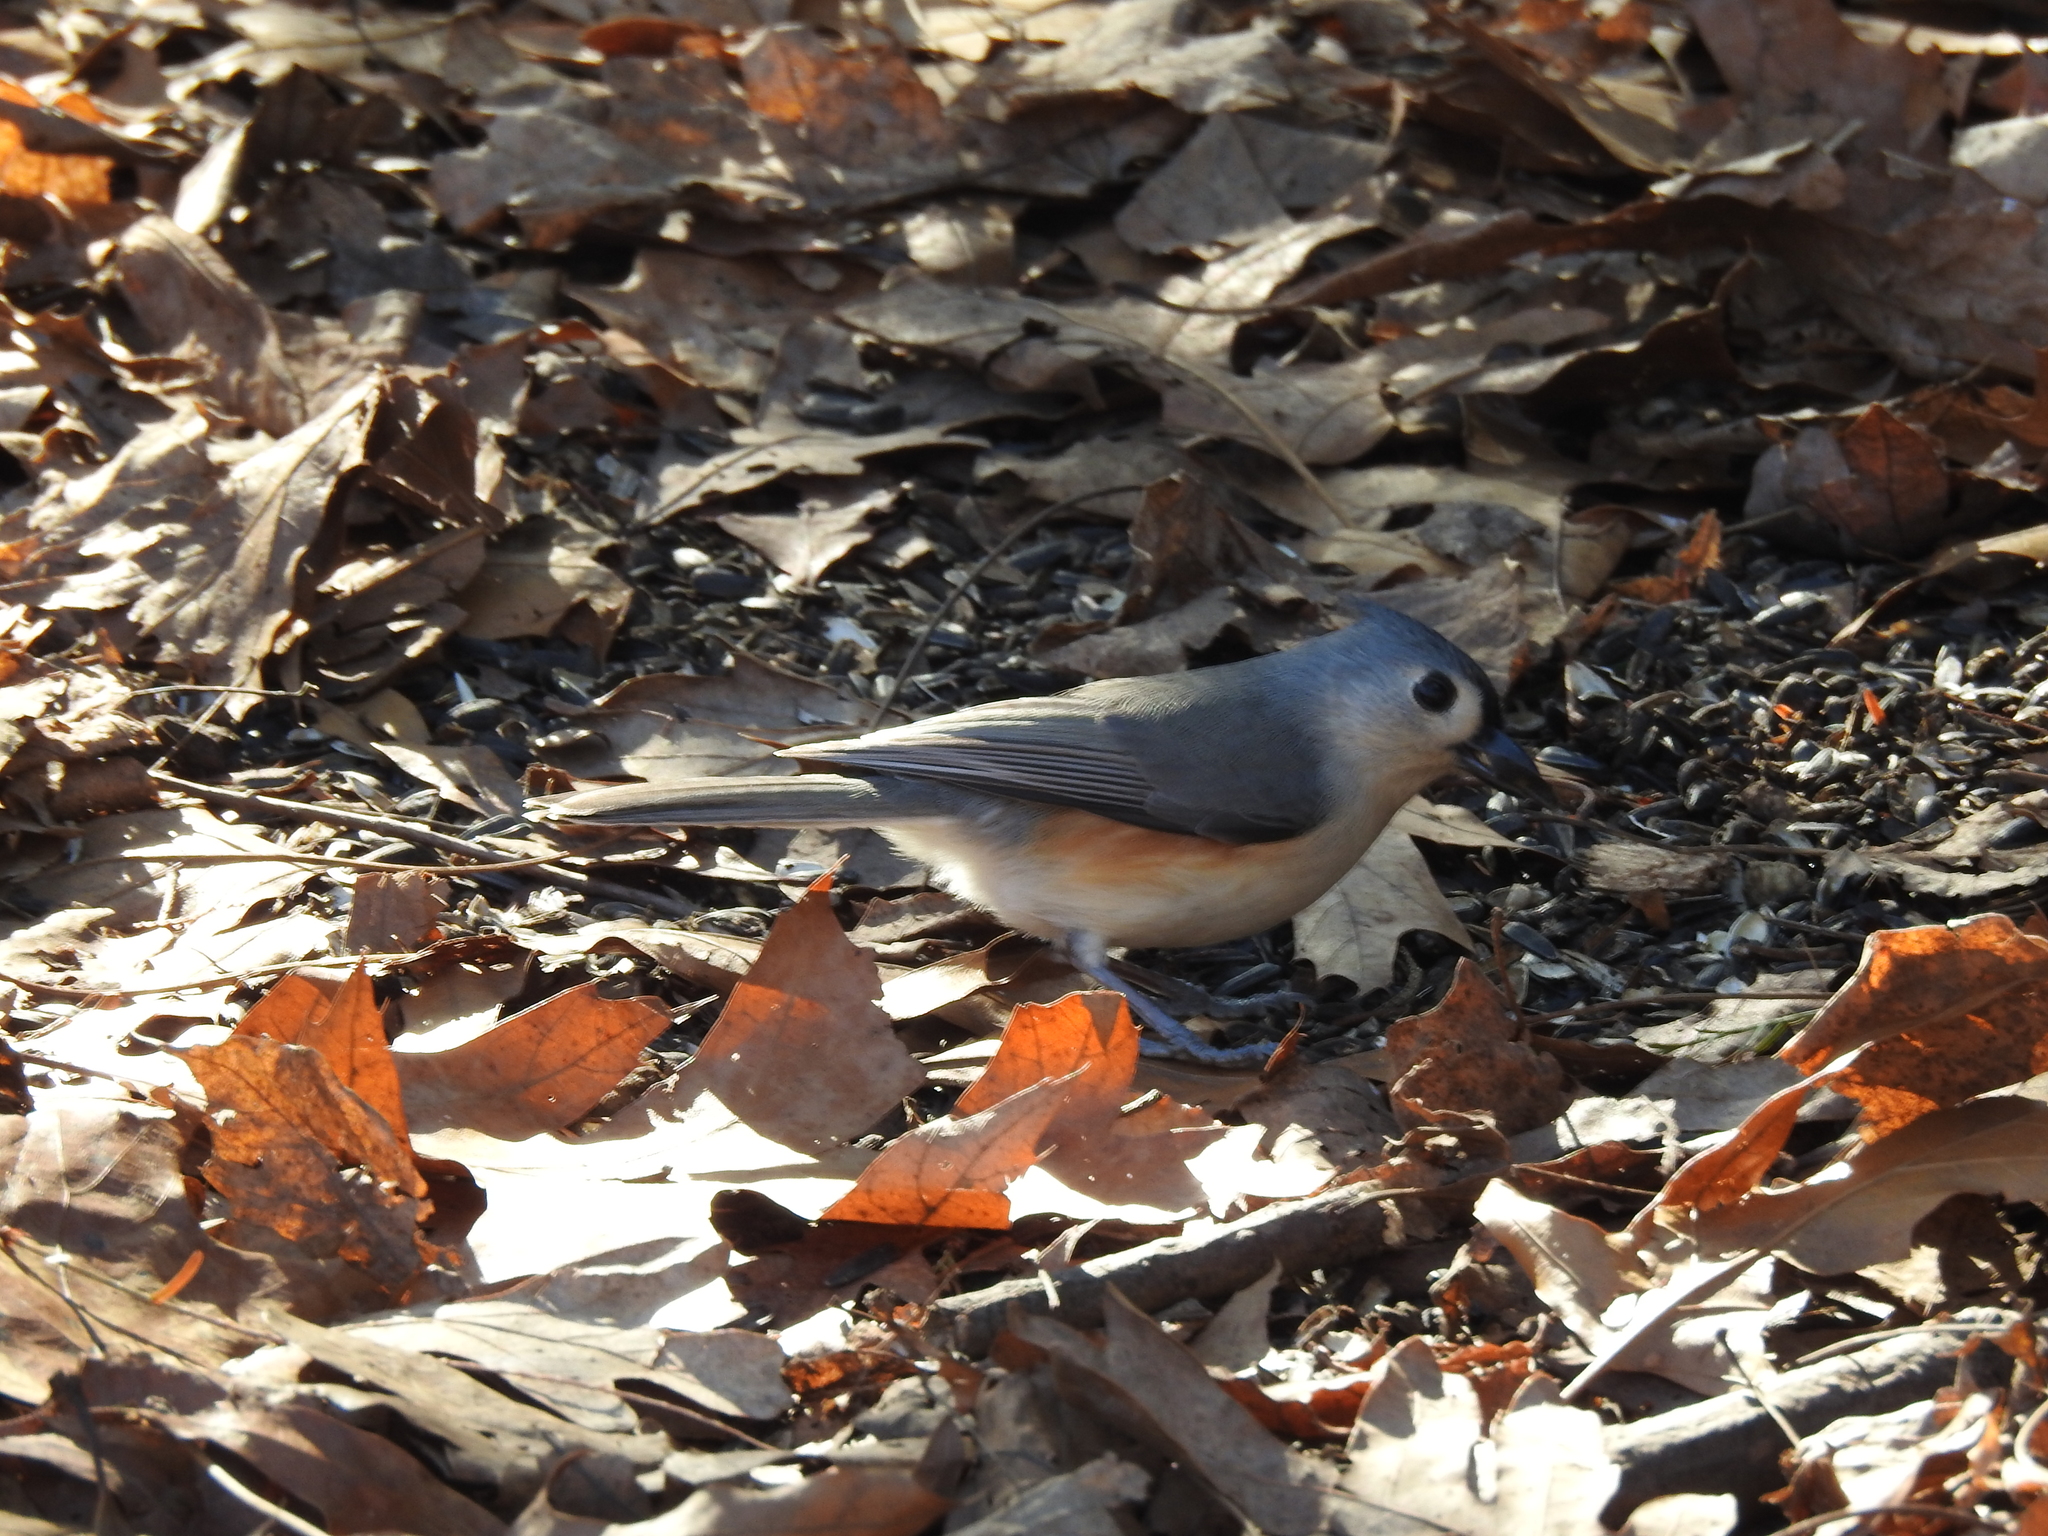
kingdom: Animalia
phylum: Chordata
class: Aves
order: Passeriformes
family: Paridae
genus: Baeolophus
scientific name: Baeolophus bicolor
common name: Tufted titmouse
